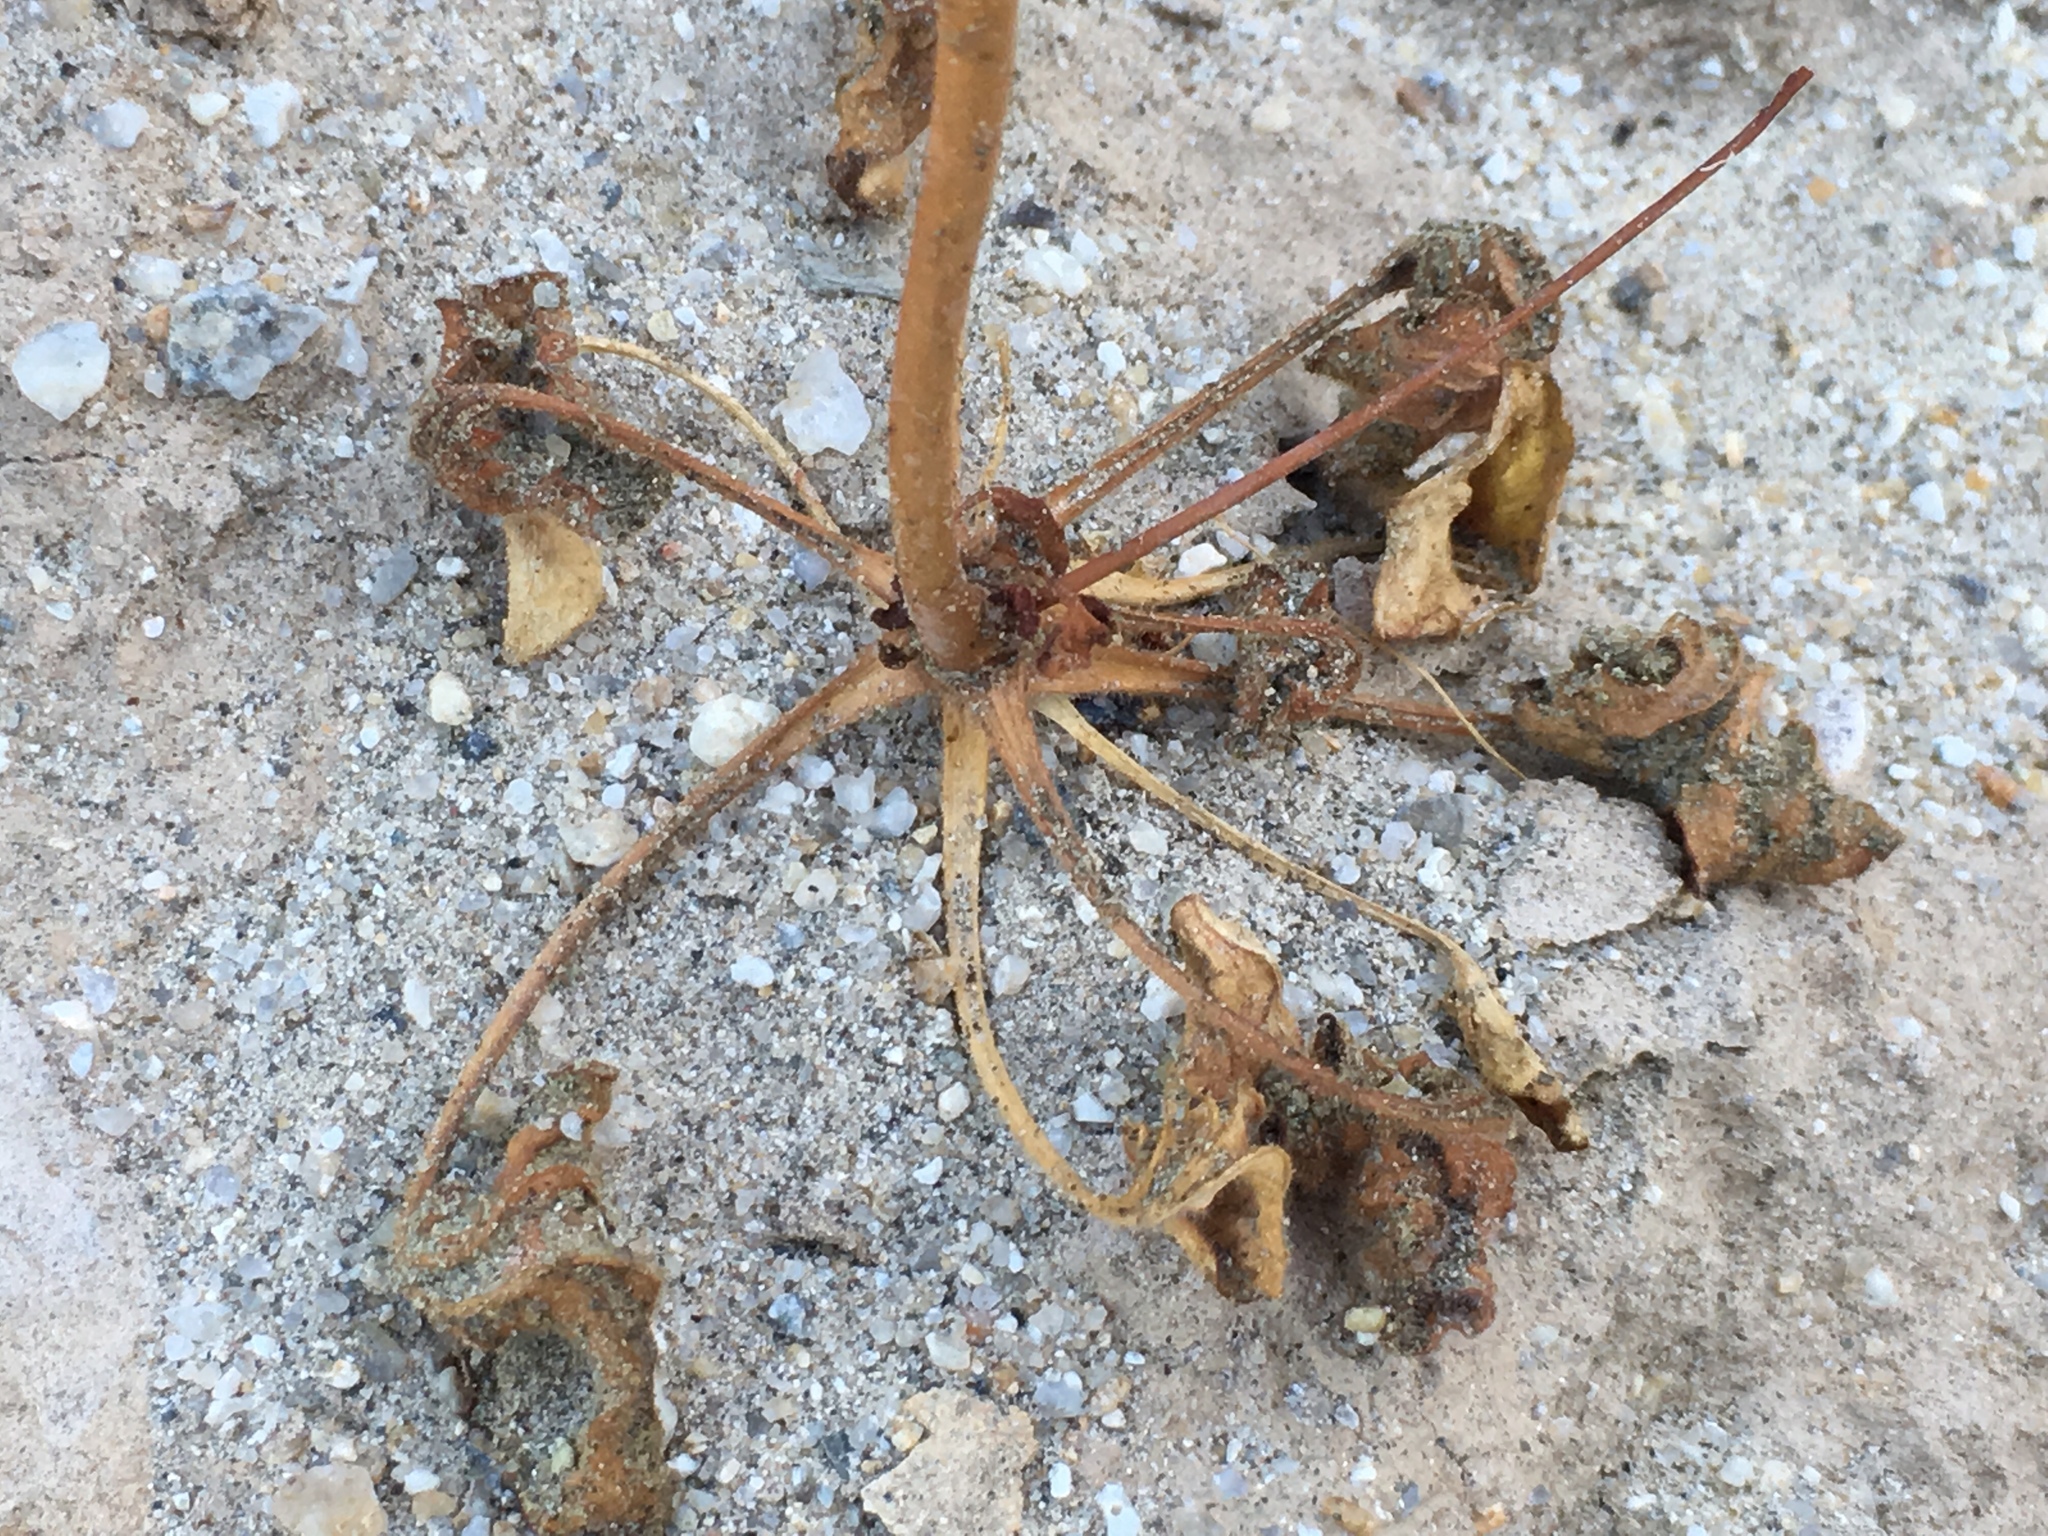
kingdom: Plantae
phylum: Tracheophyta
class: Magnoliopsida
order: Caryophyllales
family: Polygonaceae
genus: Eriogonum
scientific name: Eriogonum trichopes
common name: Little desert trumpet
